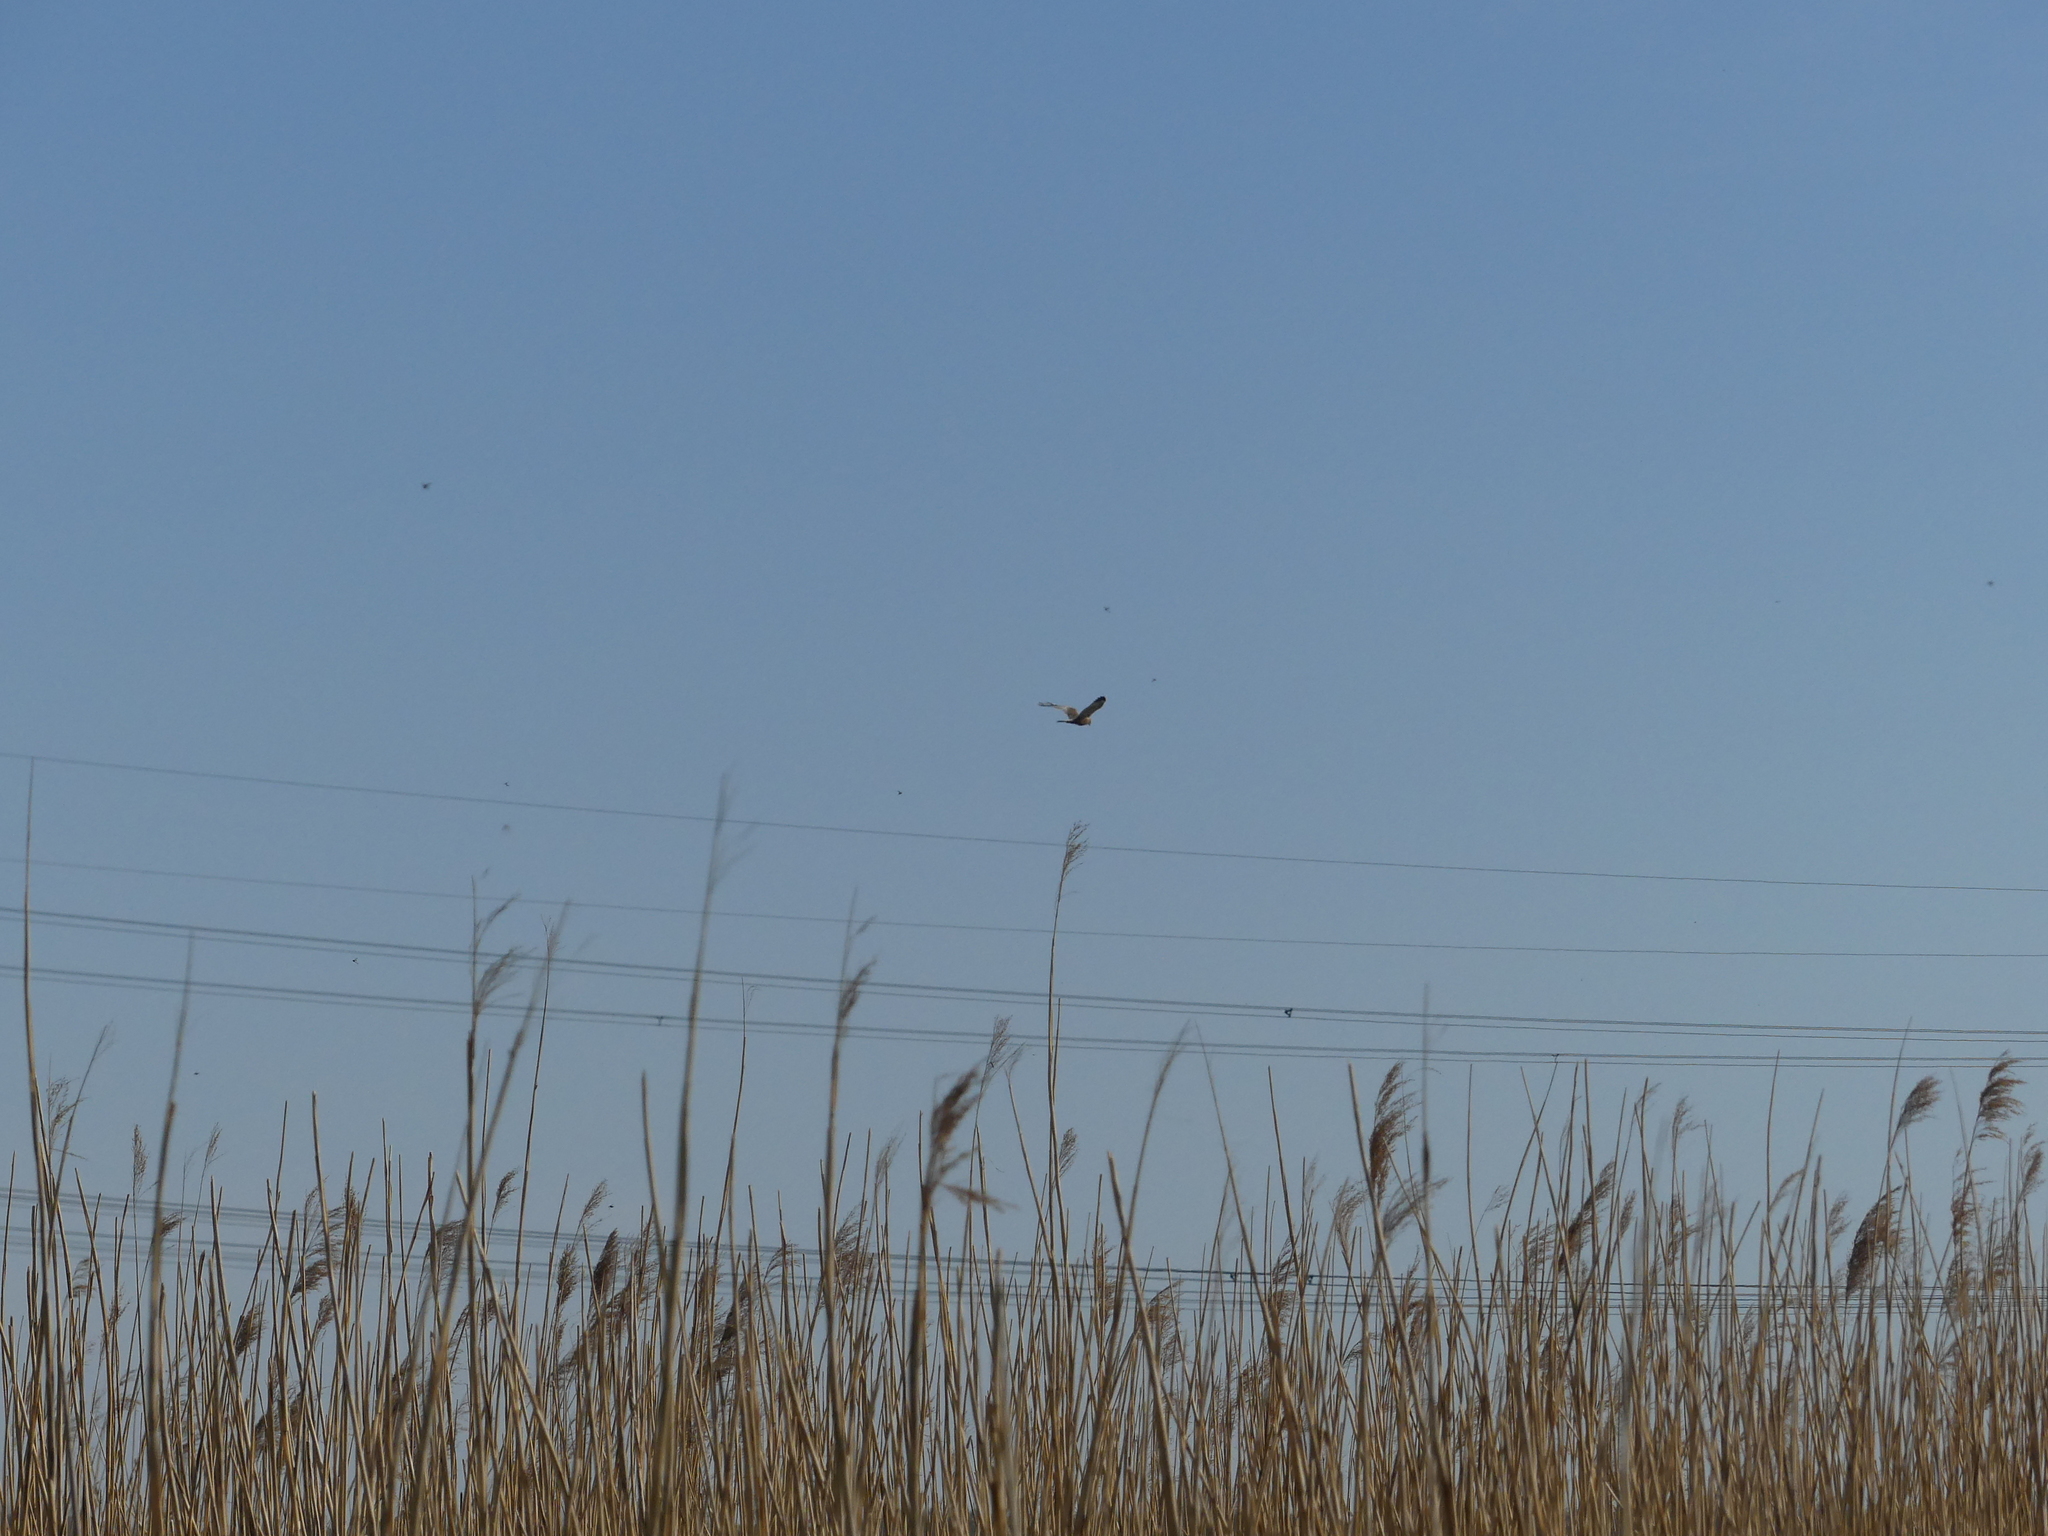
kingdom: Animalia
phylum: Chordata
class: Aves
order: Accipitriformes
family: Accipitridae
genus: Circus
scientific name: Circus aeruginosus
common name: Western marsh harrier
